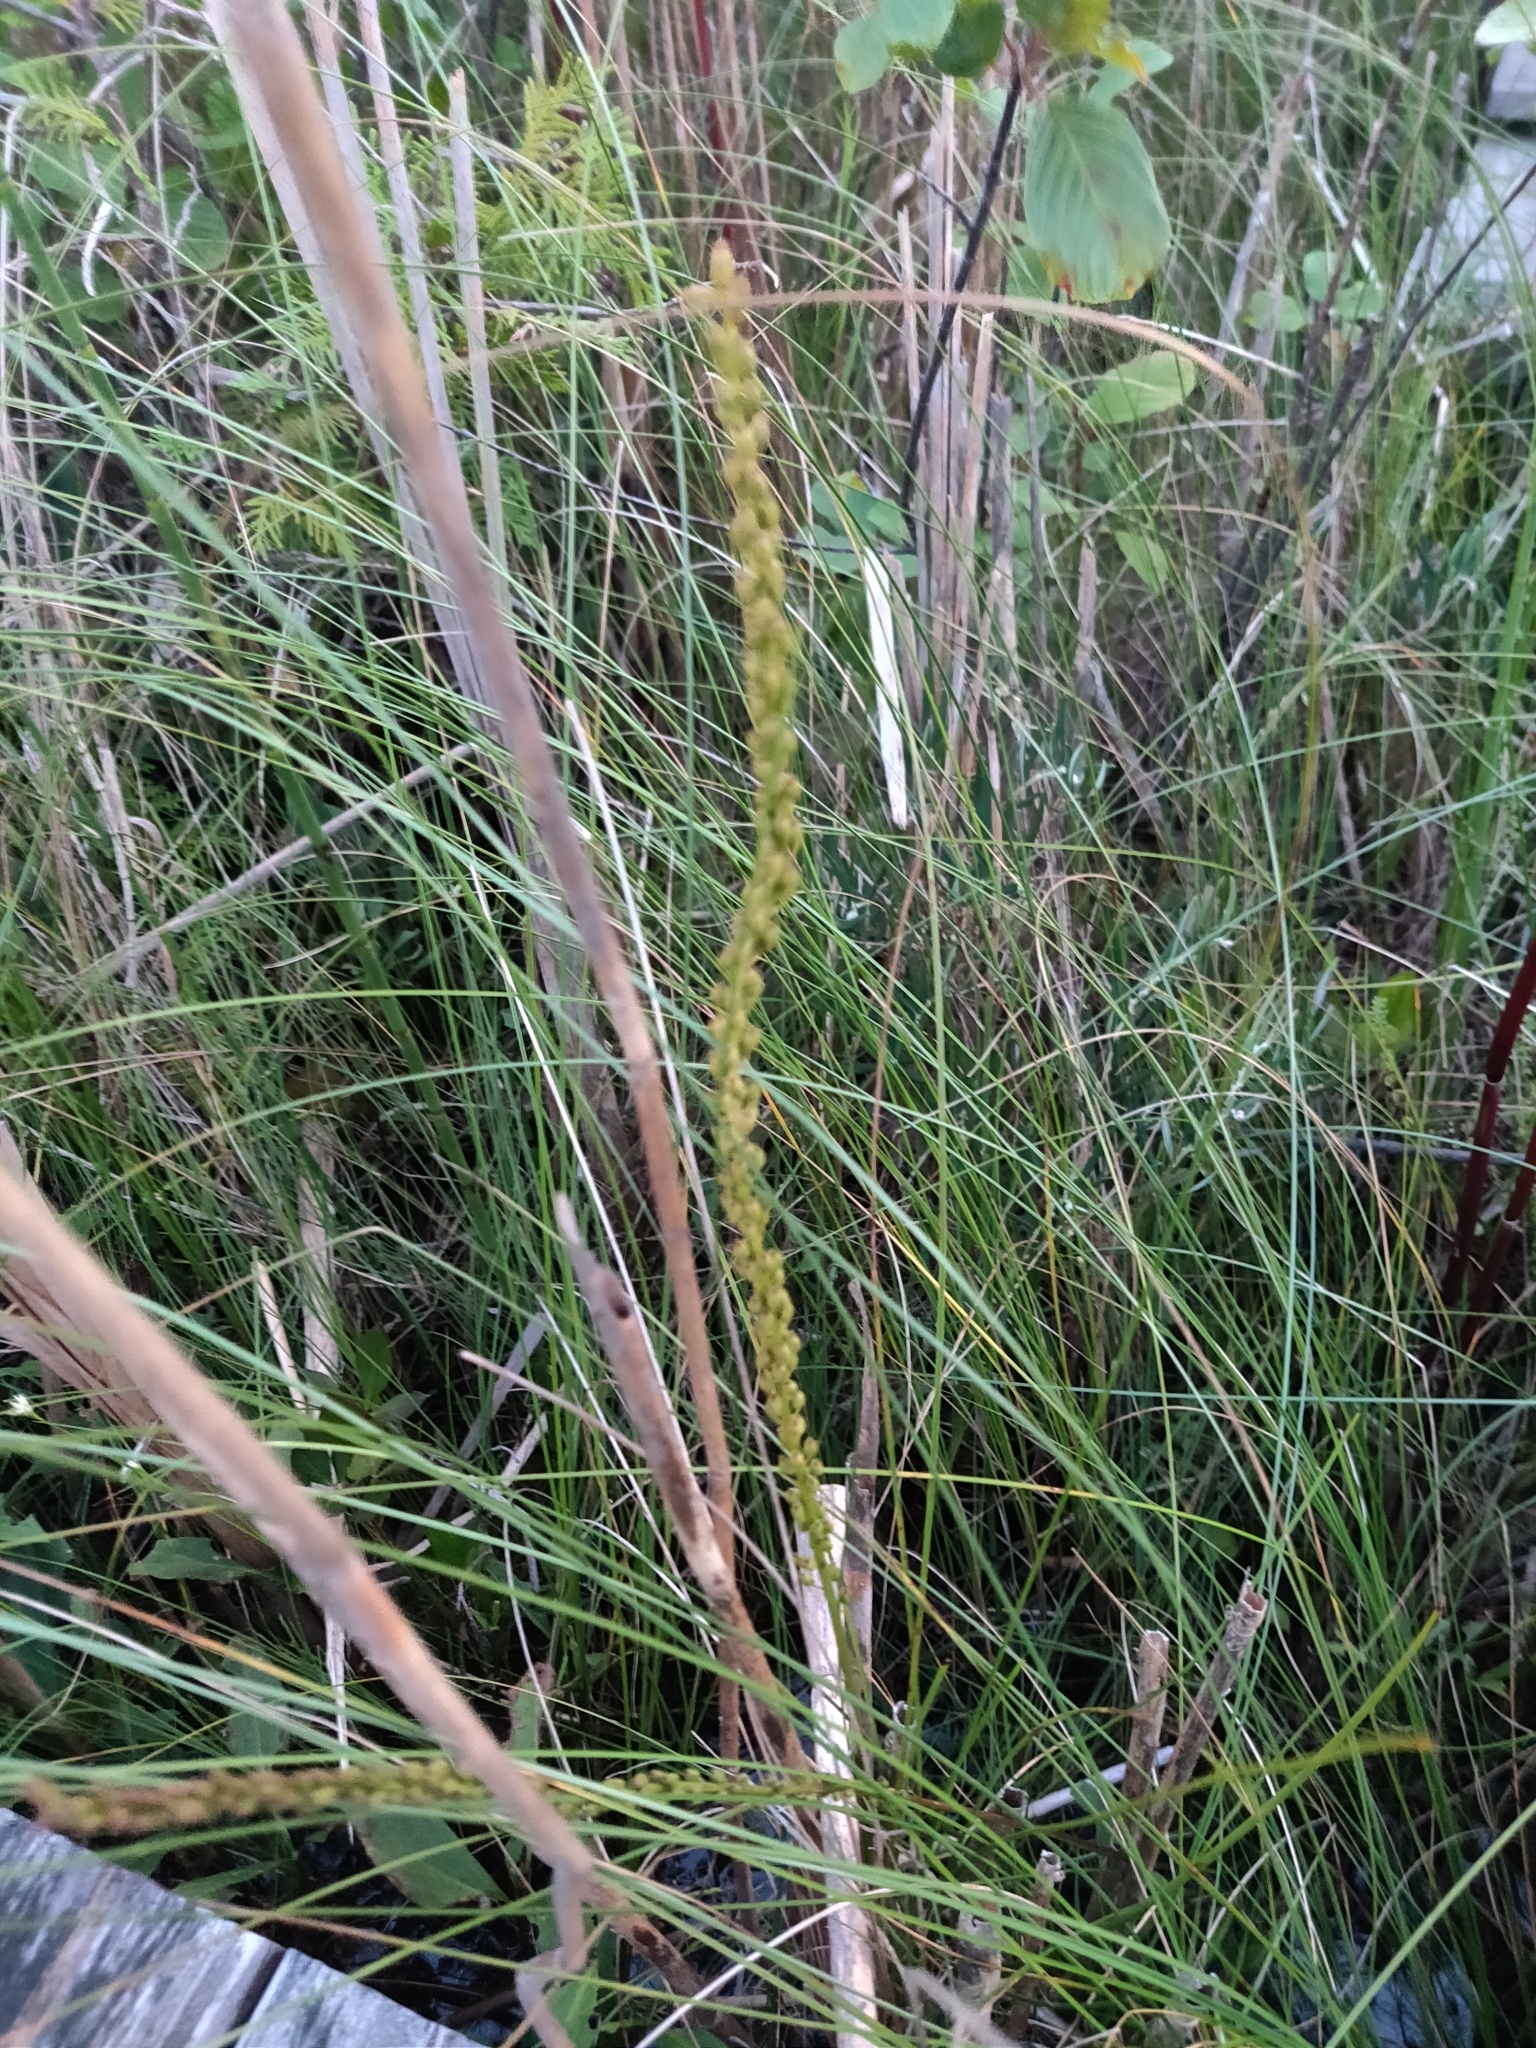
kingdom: Plantae
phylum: Tracheophyta
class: Liliopsida
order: Alismatales
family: Juncaginaceae
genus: Triglochin
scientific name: Triglochin maritima
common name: Sea arrowgrass
